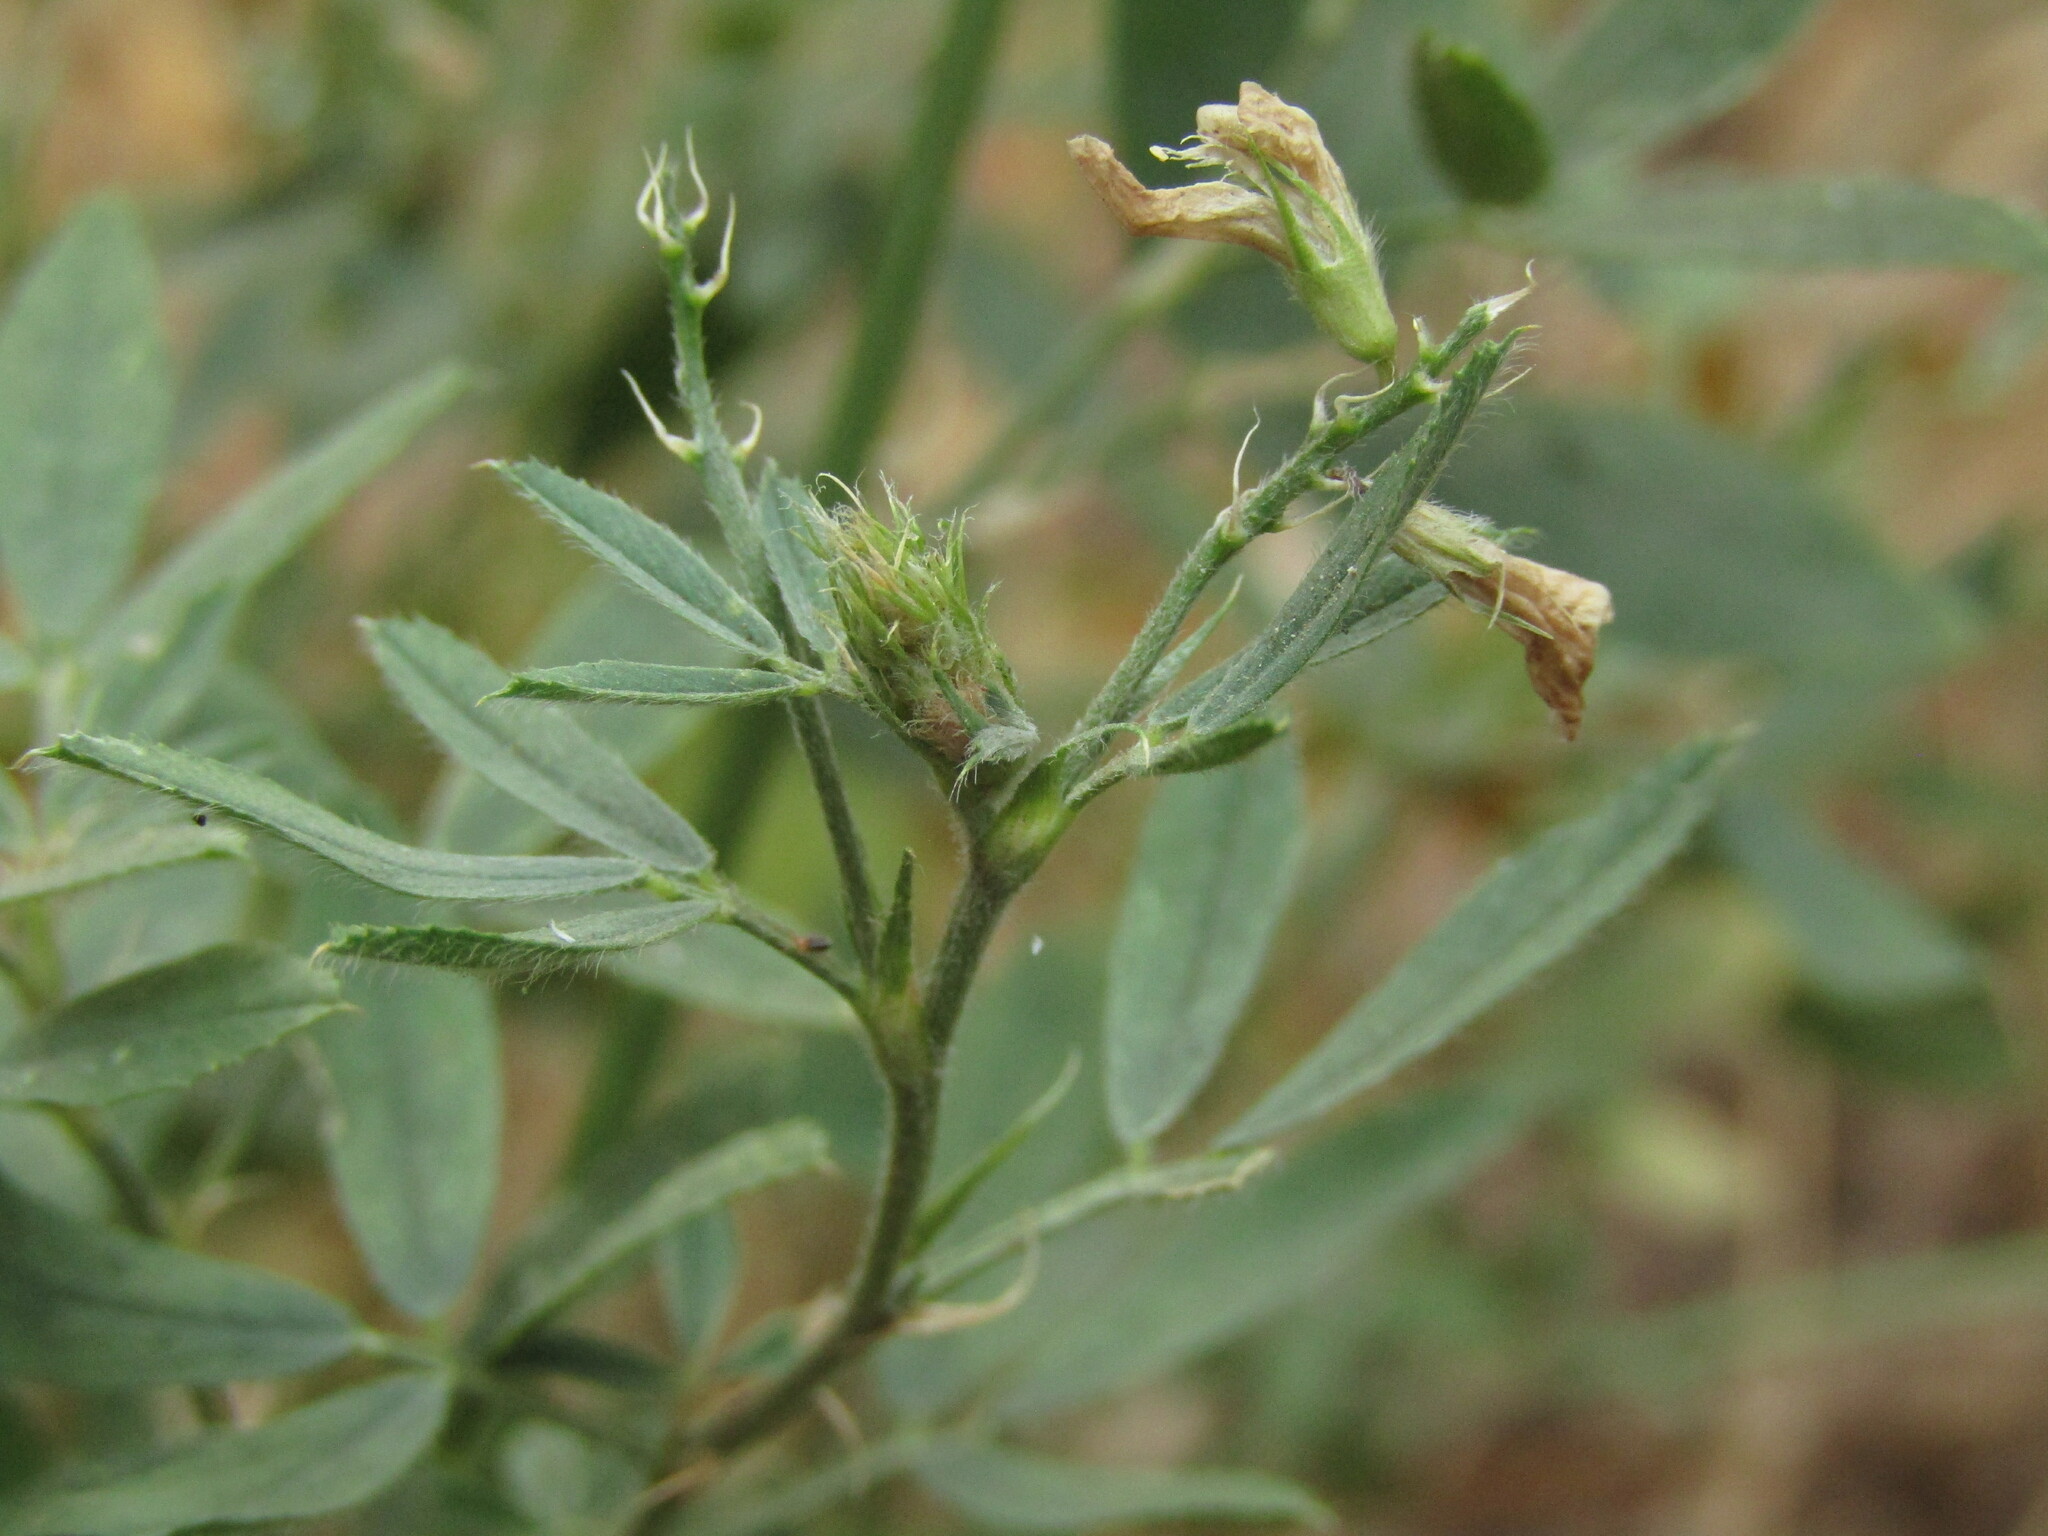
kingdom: Plantae
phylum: Tracheophyta
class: Magnoliopsida
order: Fabales
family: Fabaceae
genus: Medicago
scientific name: Medicago sativa
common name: Alfalfa
